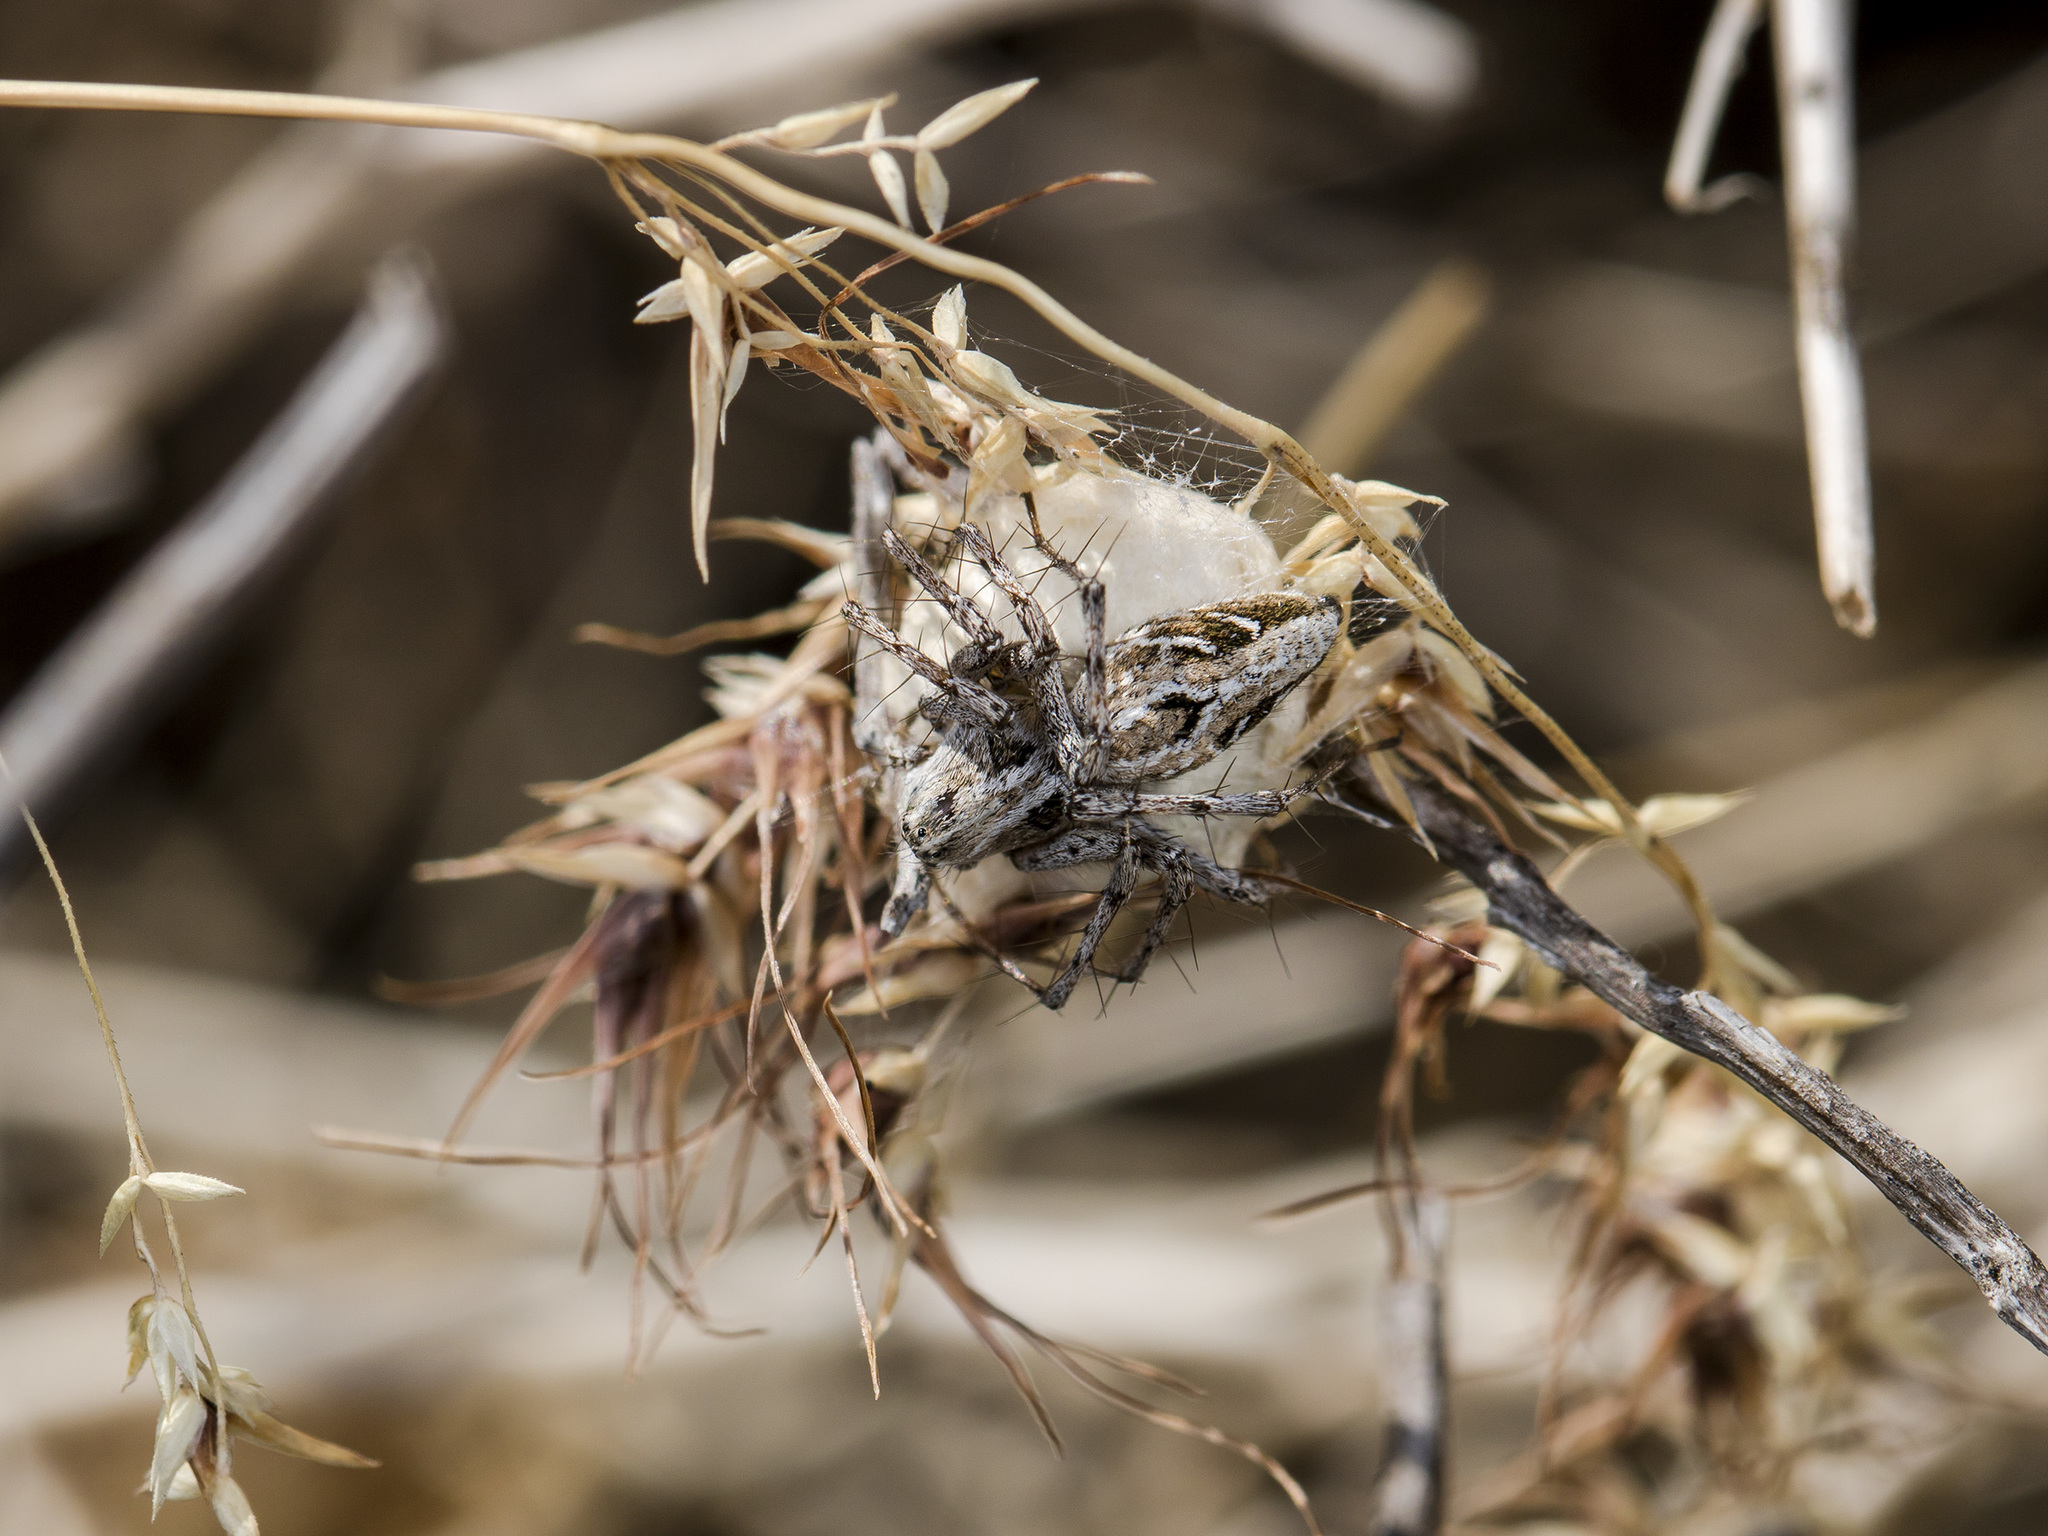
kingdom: Animalia
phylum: Arthropoda
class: Arachnida
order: Araneae
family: Oxyopidae
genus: Oxyopes
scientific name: Oxyopes takobius
